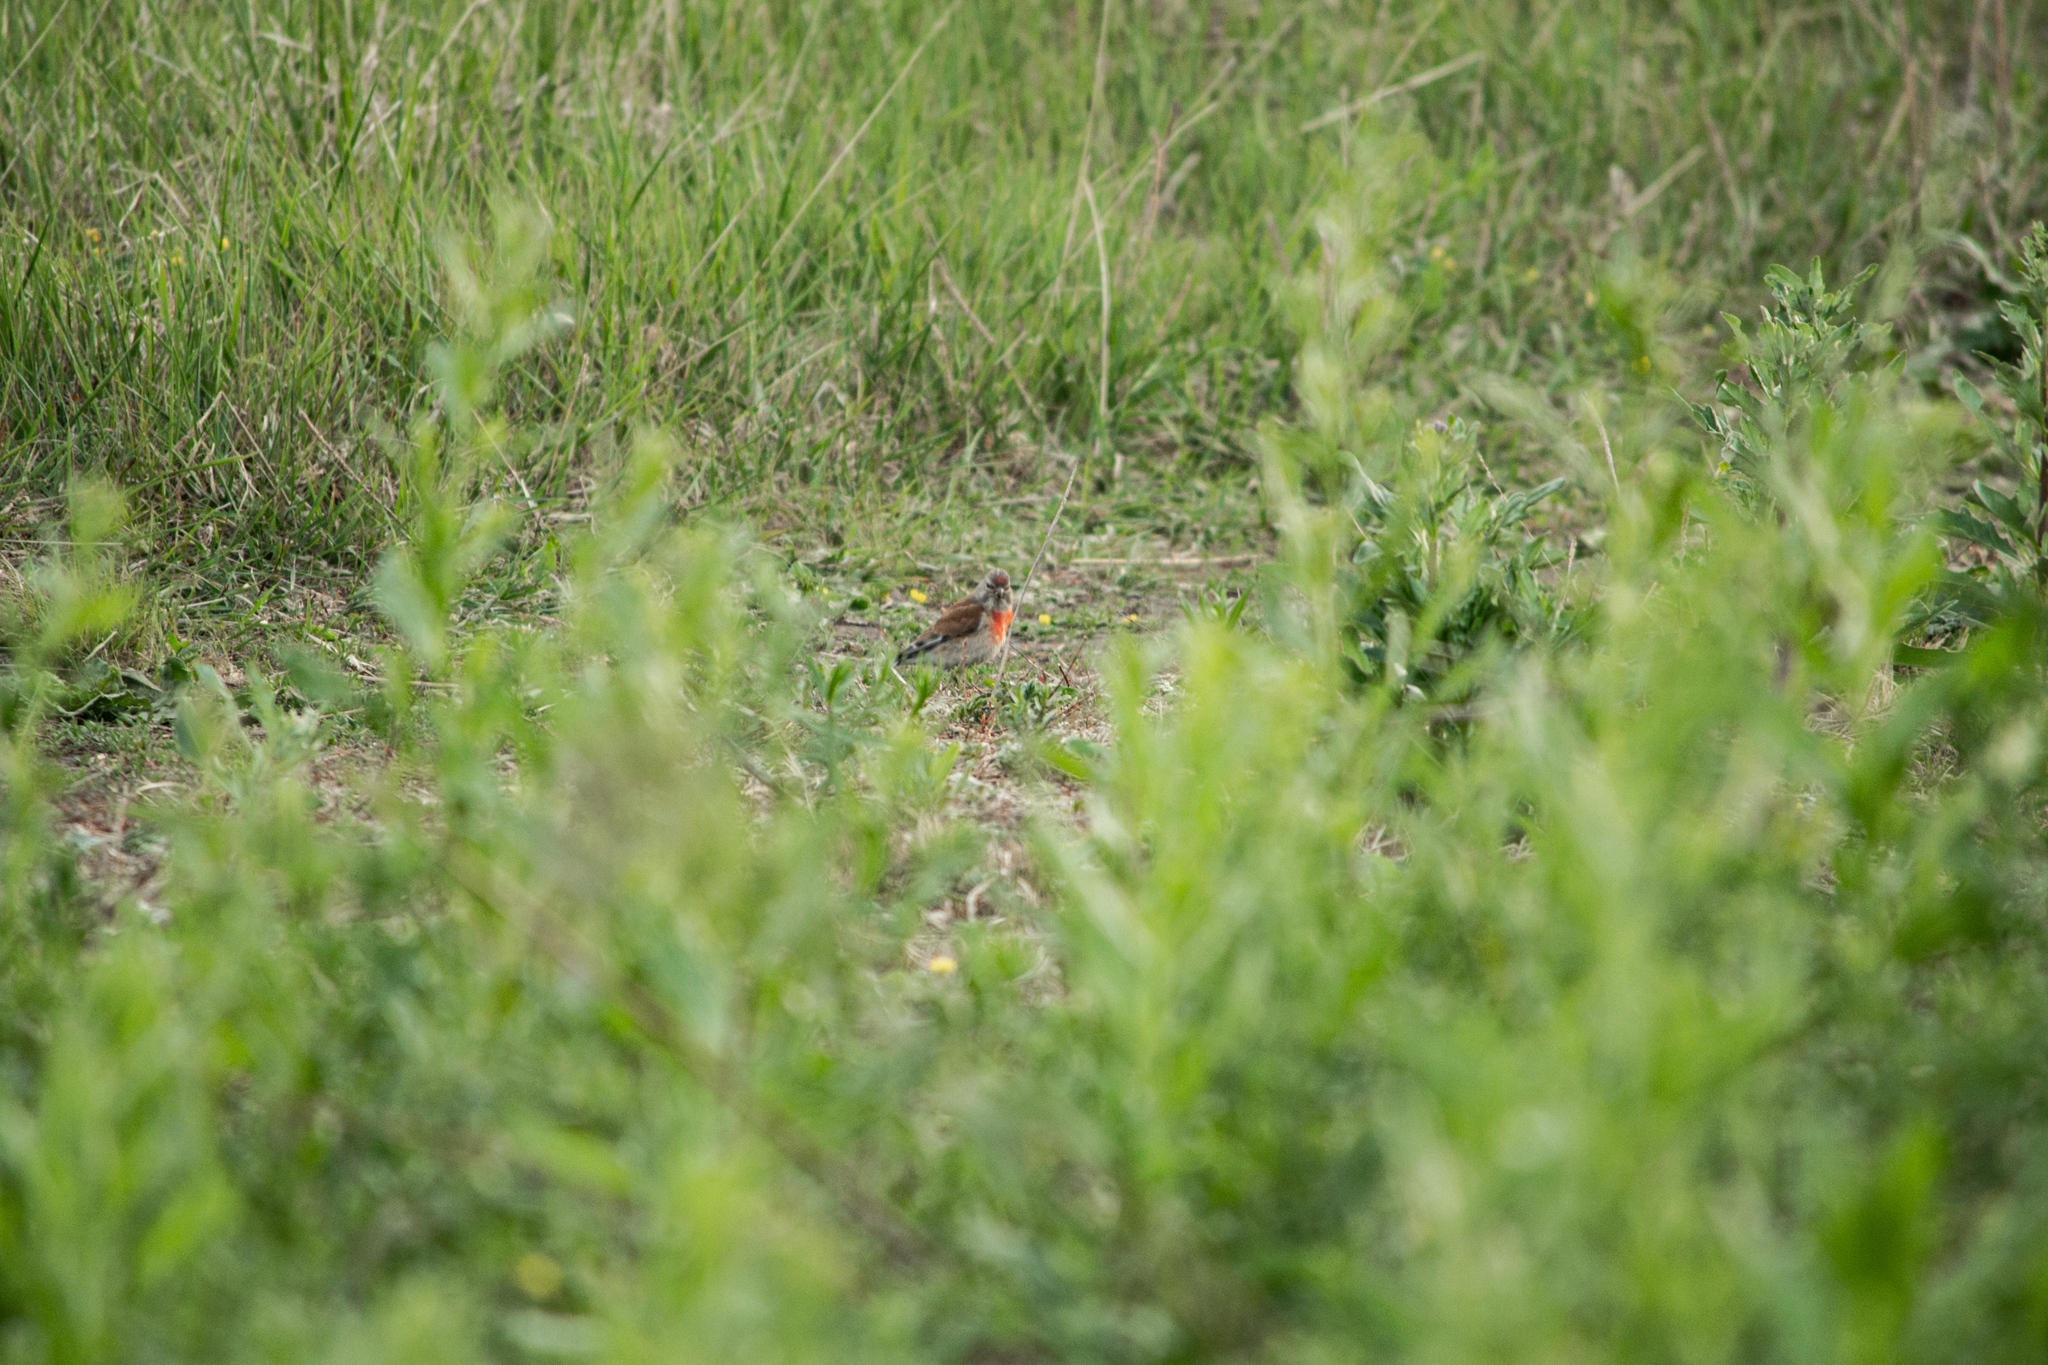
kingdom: Animalia
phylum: Chordata
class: Aves
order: Passeriformes
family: Fringillidae
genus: Linaria
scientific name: Linaria cannabina
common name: Common linnet
